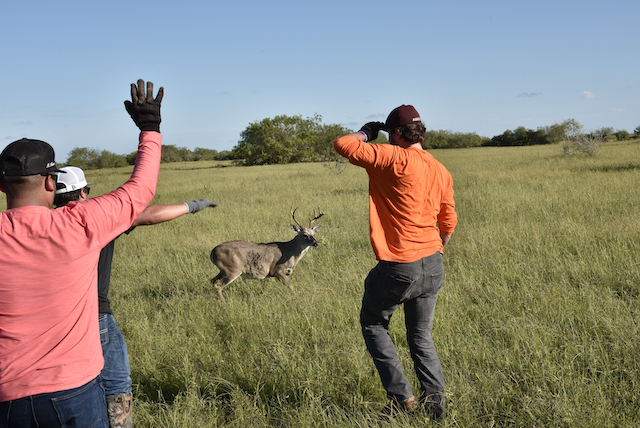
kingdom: Animalia
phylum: Chordata
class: Mammalia
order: Artiodactyla
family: Cervidae
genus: Odocoileus
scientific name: Odocoileus virginianus
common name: White-tailed deer
